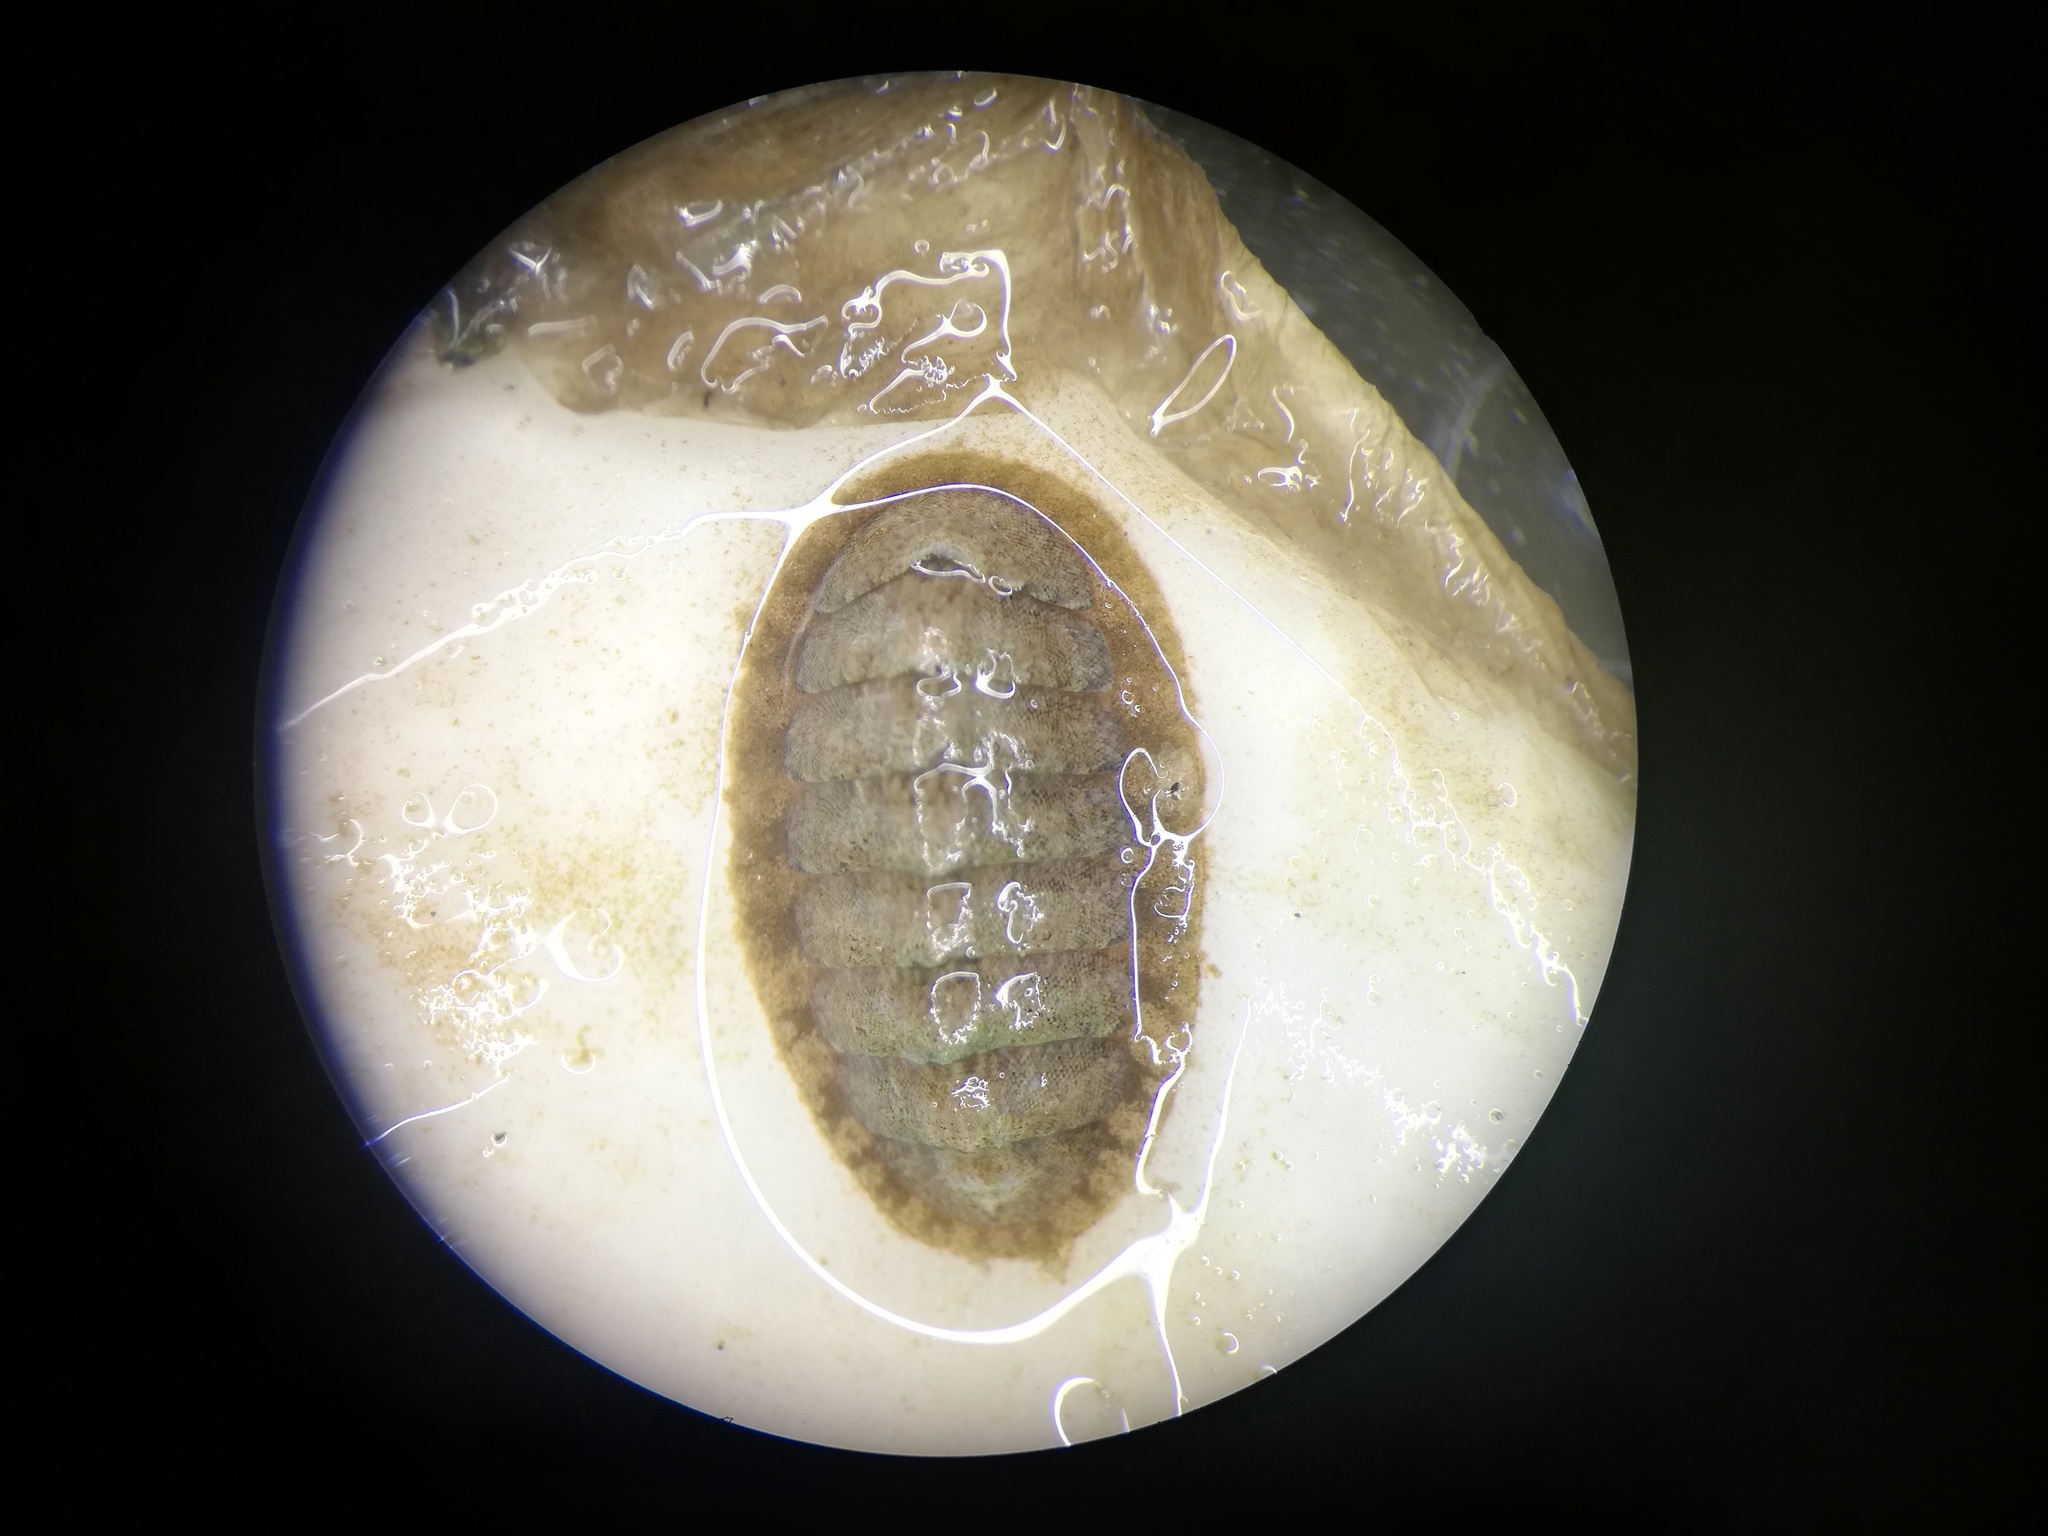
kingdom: Animalia
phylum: Mollusca
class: Polyplacophora
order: Chitonida
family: Tonicellidae
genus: Lepidochitona
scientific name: Lepidochitona cinerea
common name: Cinereous chiton
